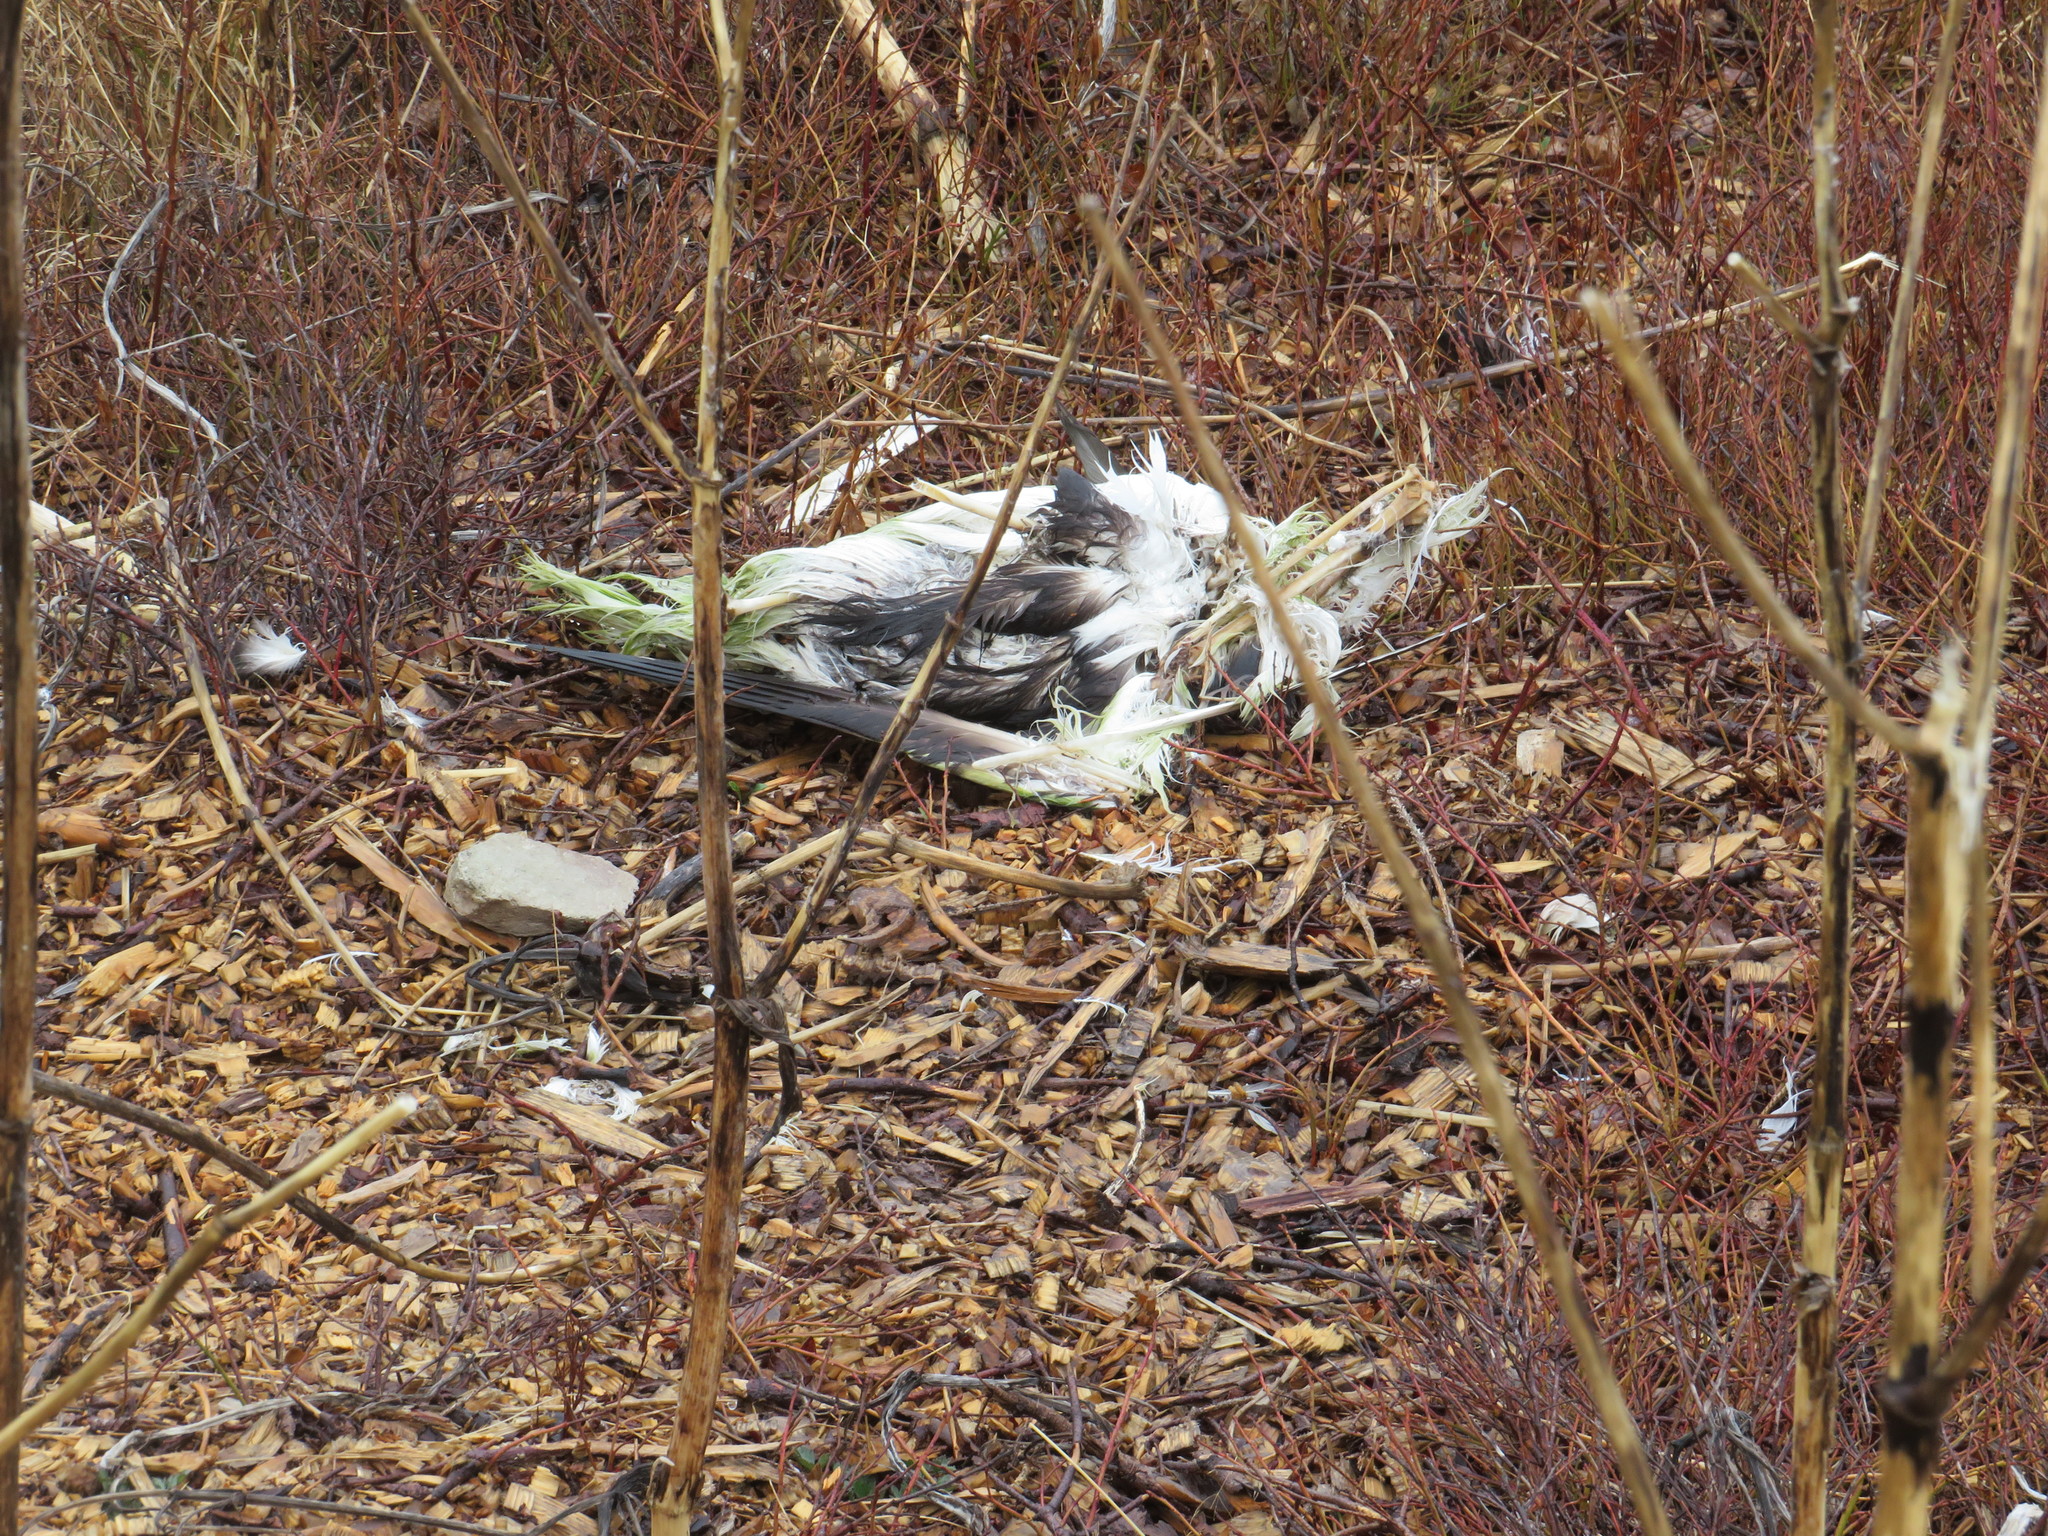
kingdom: Animalia
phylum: Chordata
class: Aves
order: Suliformes
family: Sulidae
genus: Morus
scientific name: Morus bassanus
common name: Northern gannet
